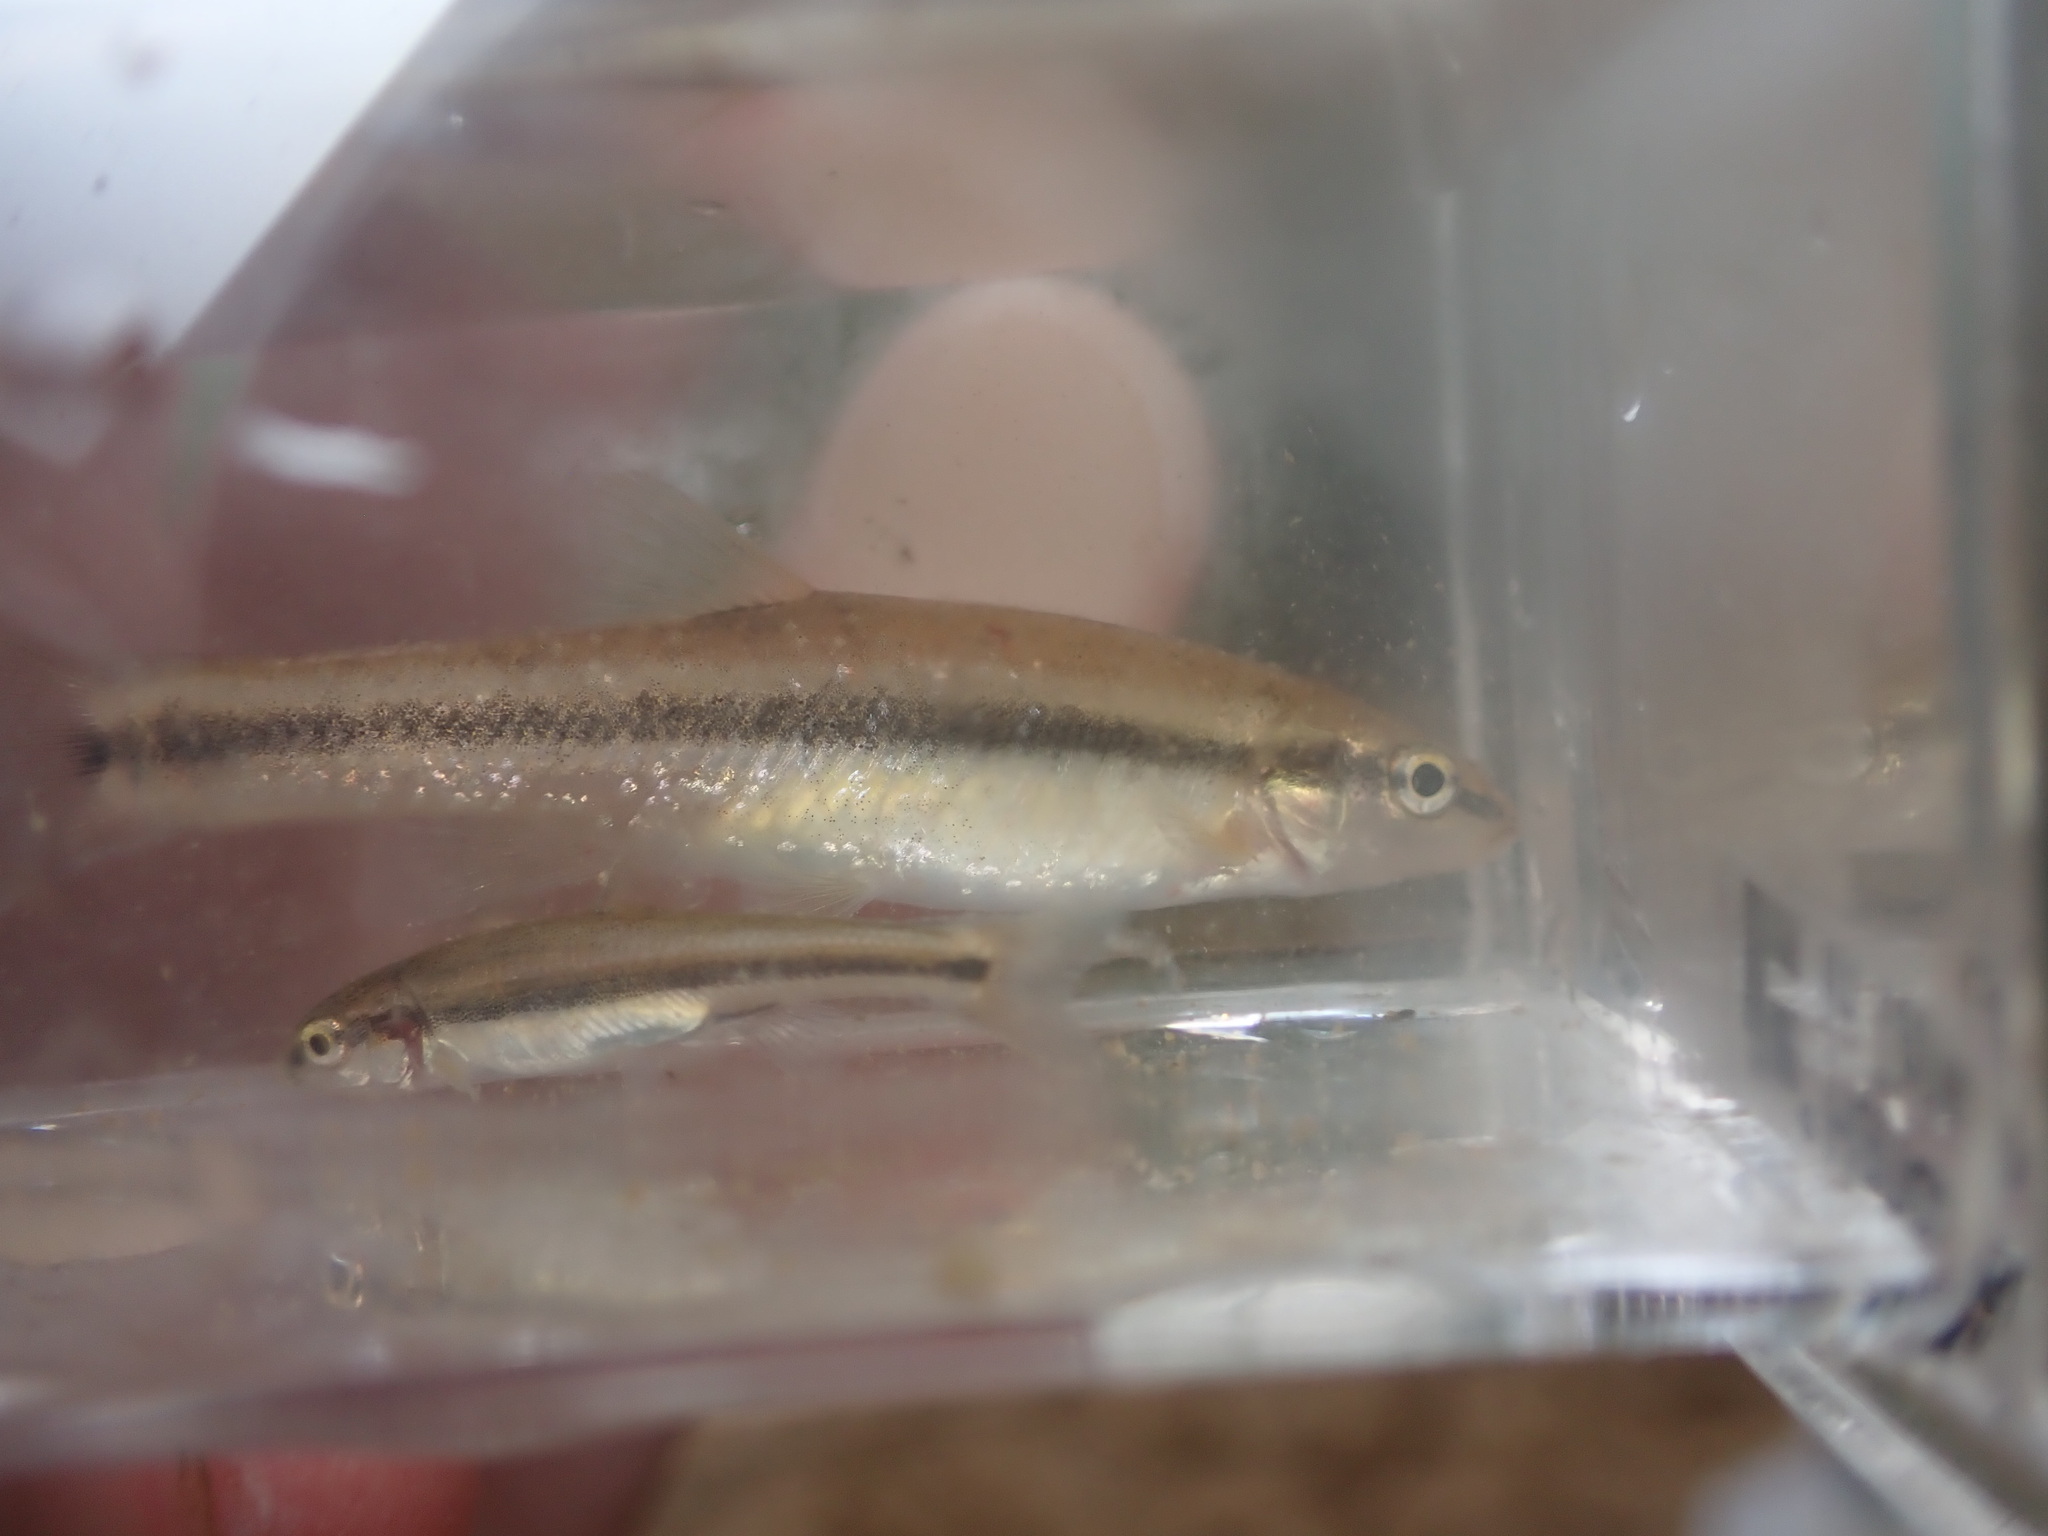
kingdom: Animalia
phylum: Chordata
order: Cypriniformes
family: Cyprinidae
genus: Rhinichthys
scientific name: Rhinichthys obtusus
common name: Western blacknose dace
